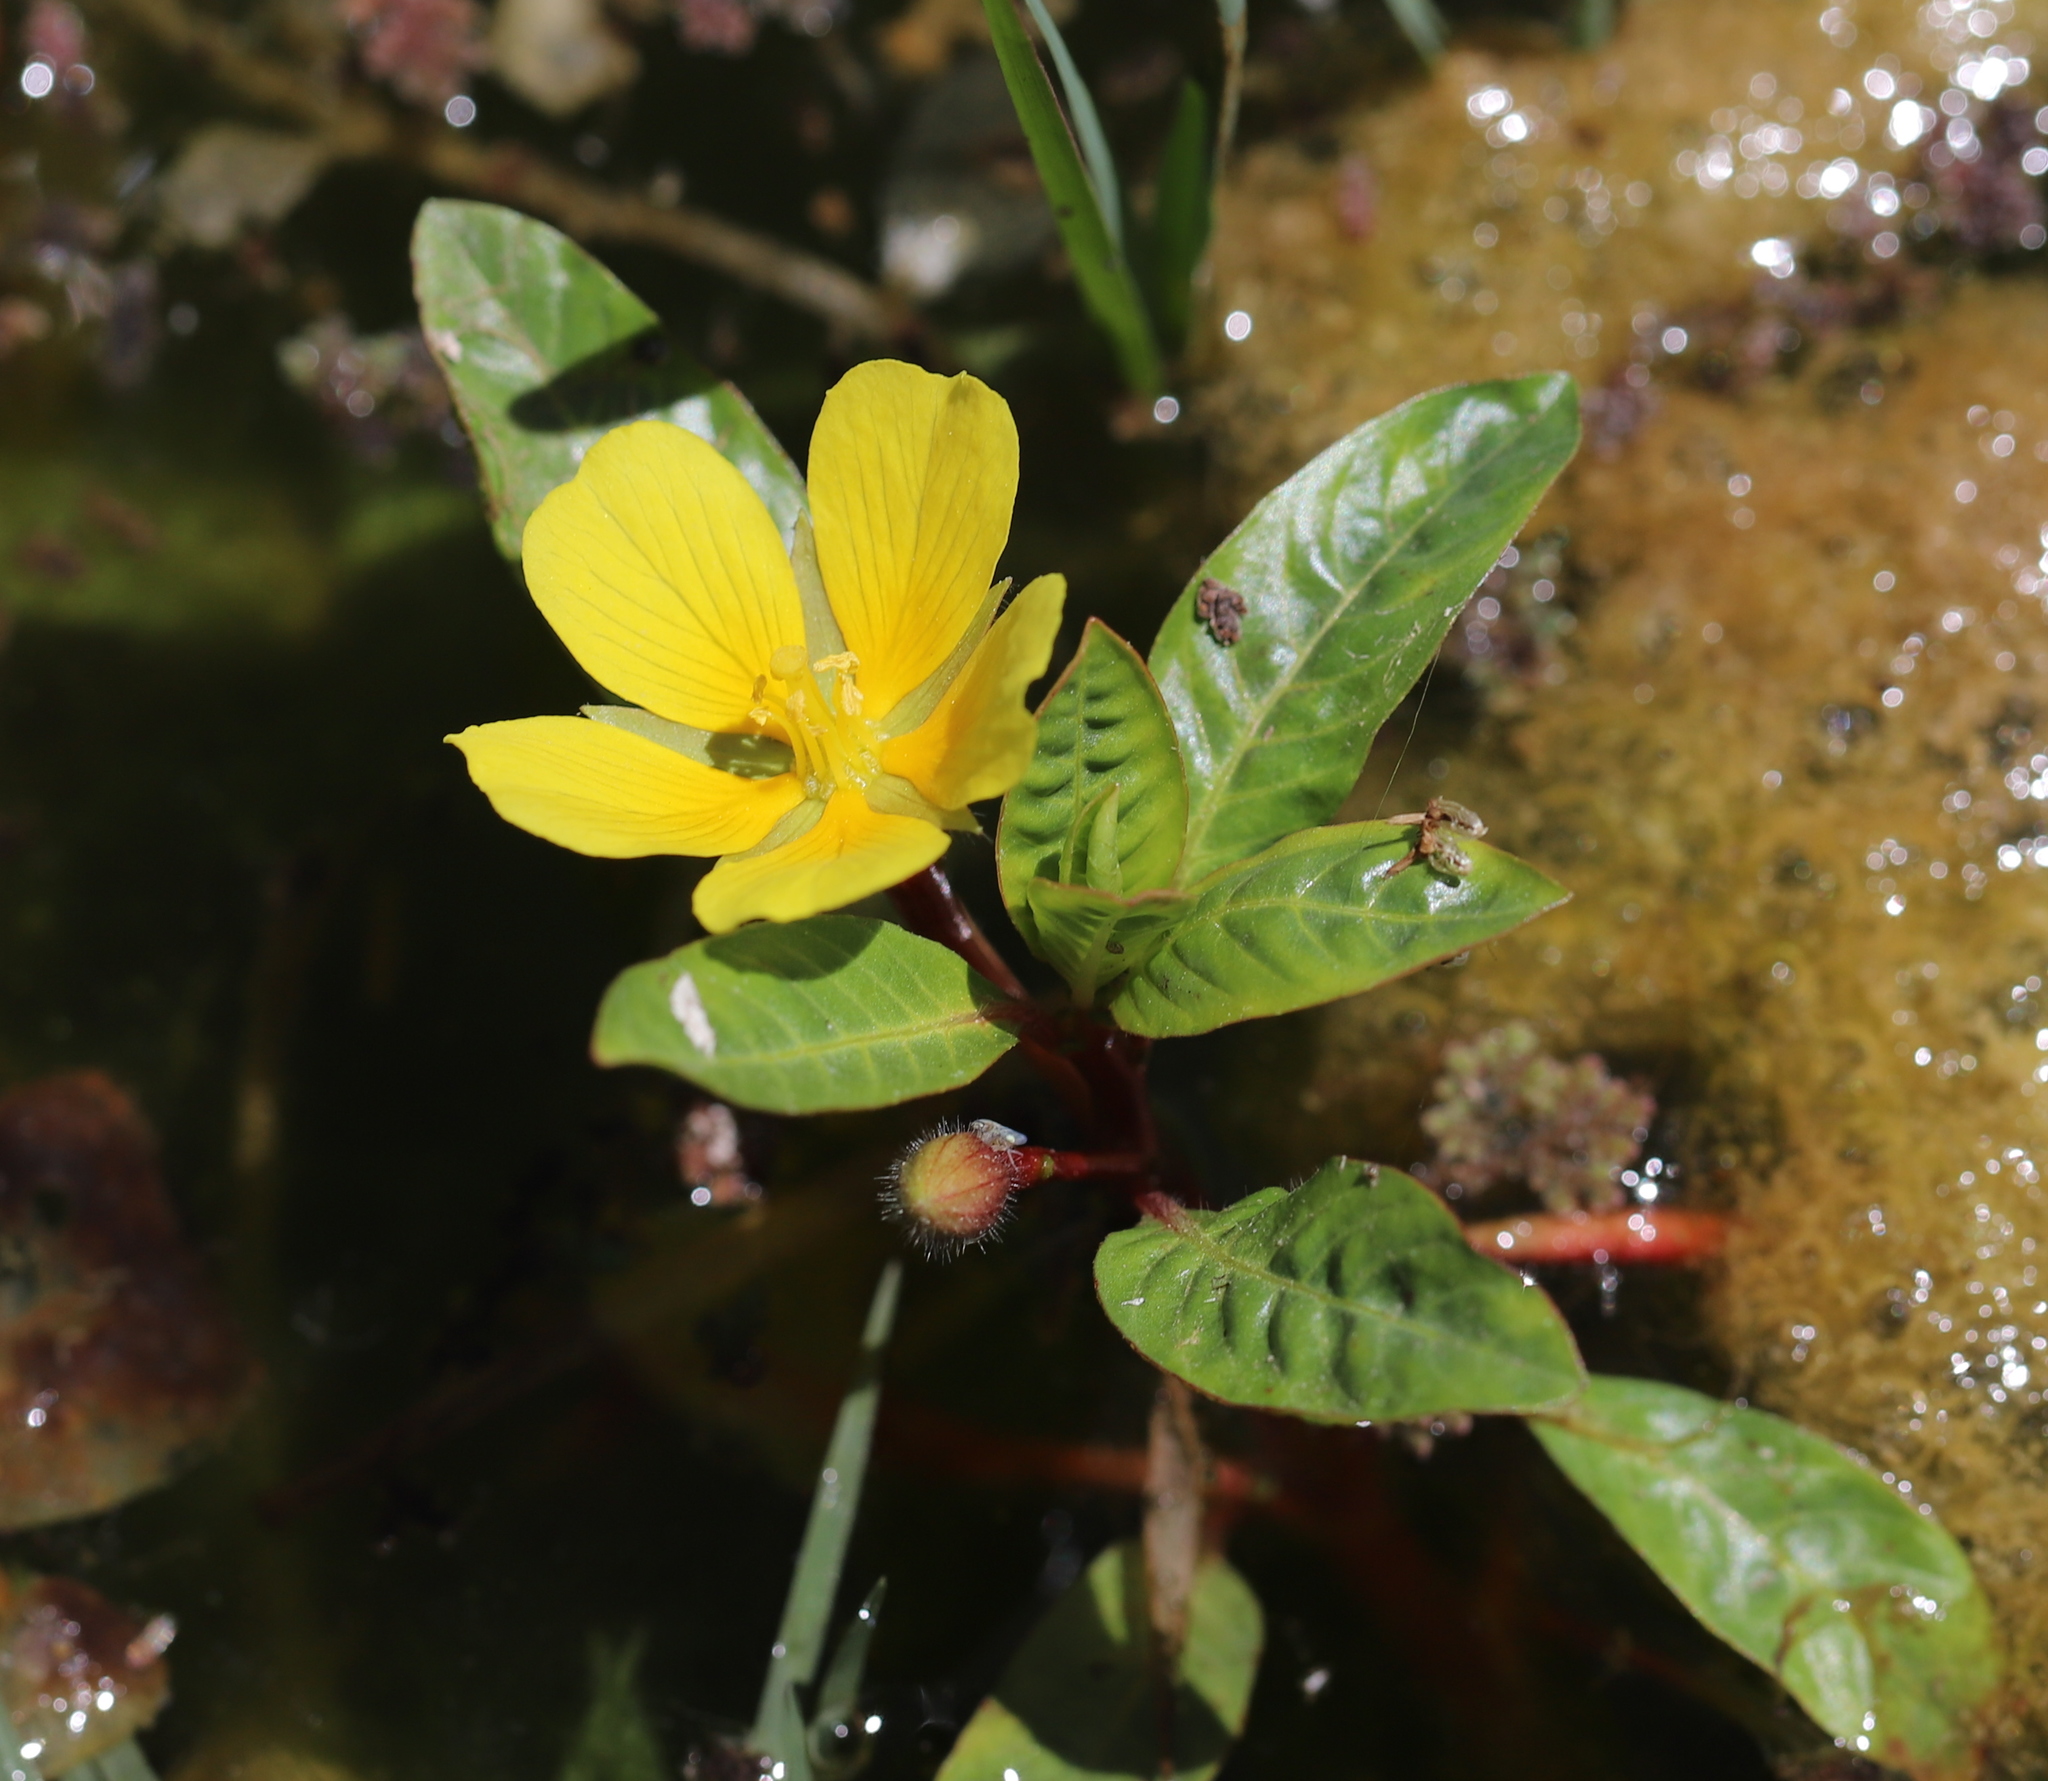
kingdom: Plantae
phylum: Tracheophyta
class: Magnoliopsida
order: Myrtales
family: Onagraceae
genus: Ludwigia
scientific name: Ludwigia peploides
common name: Floating primrose-willow
